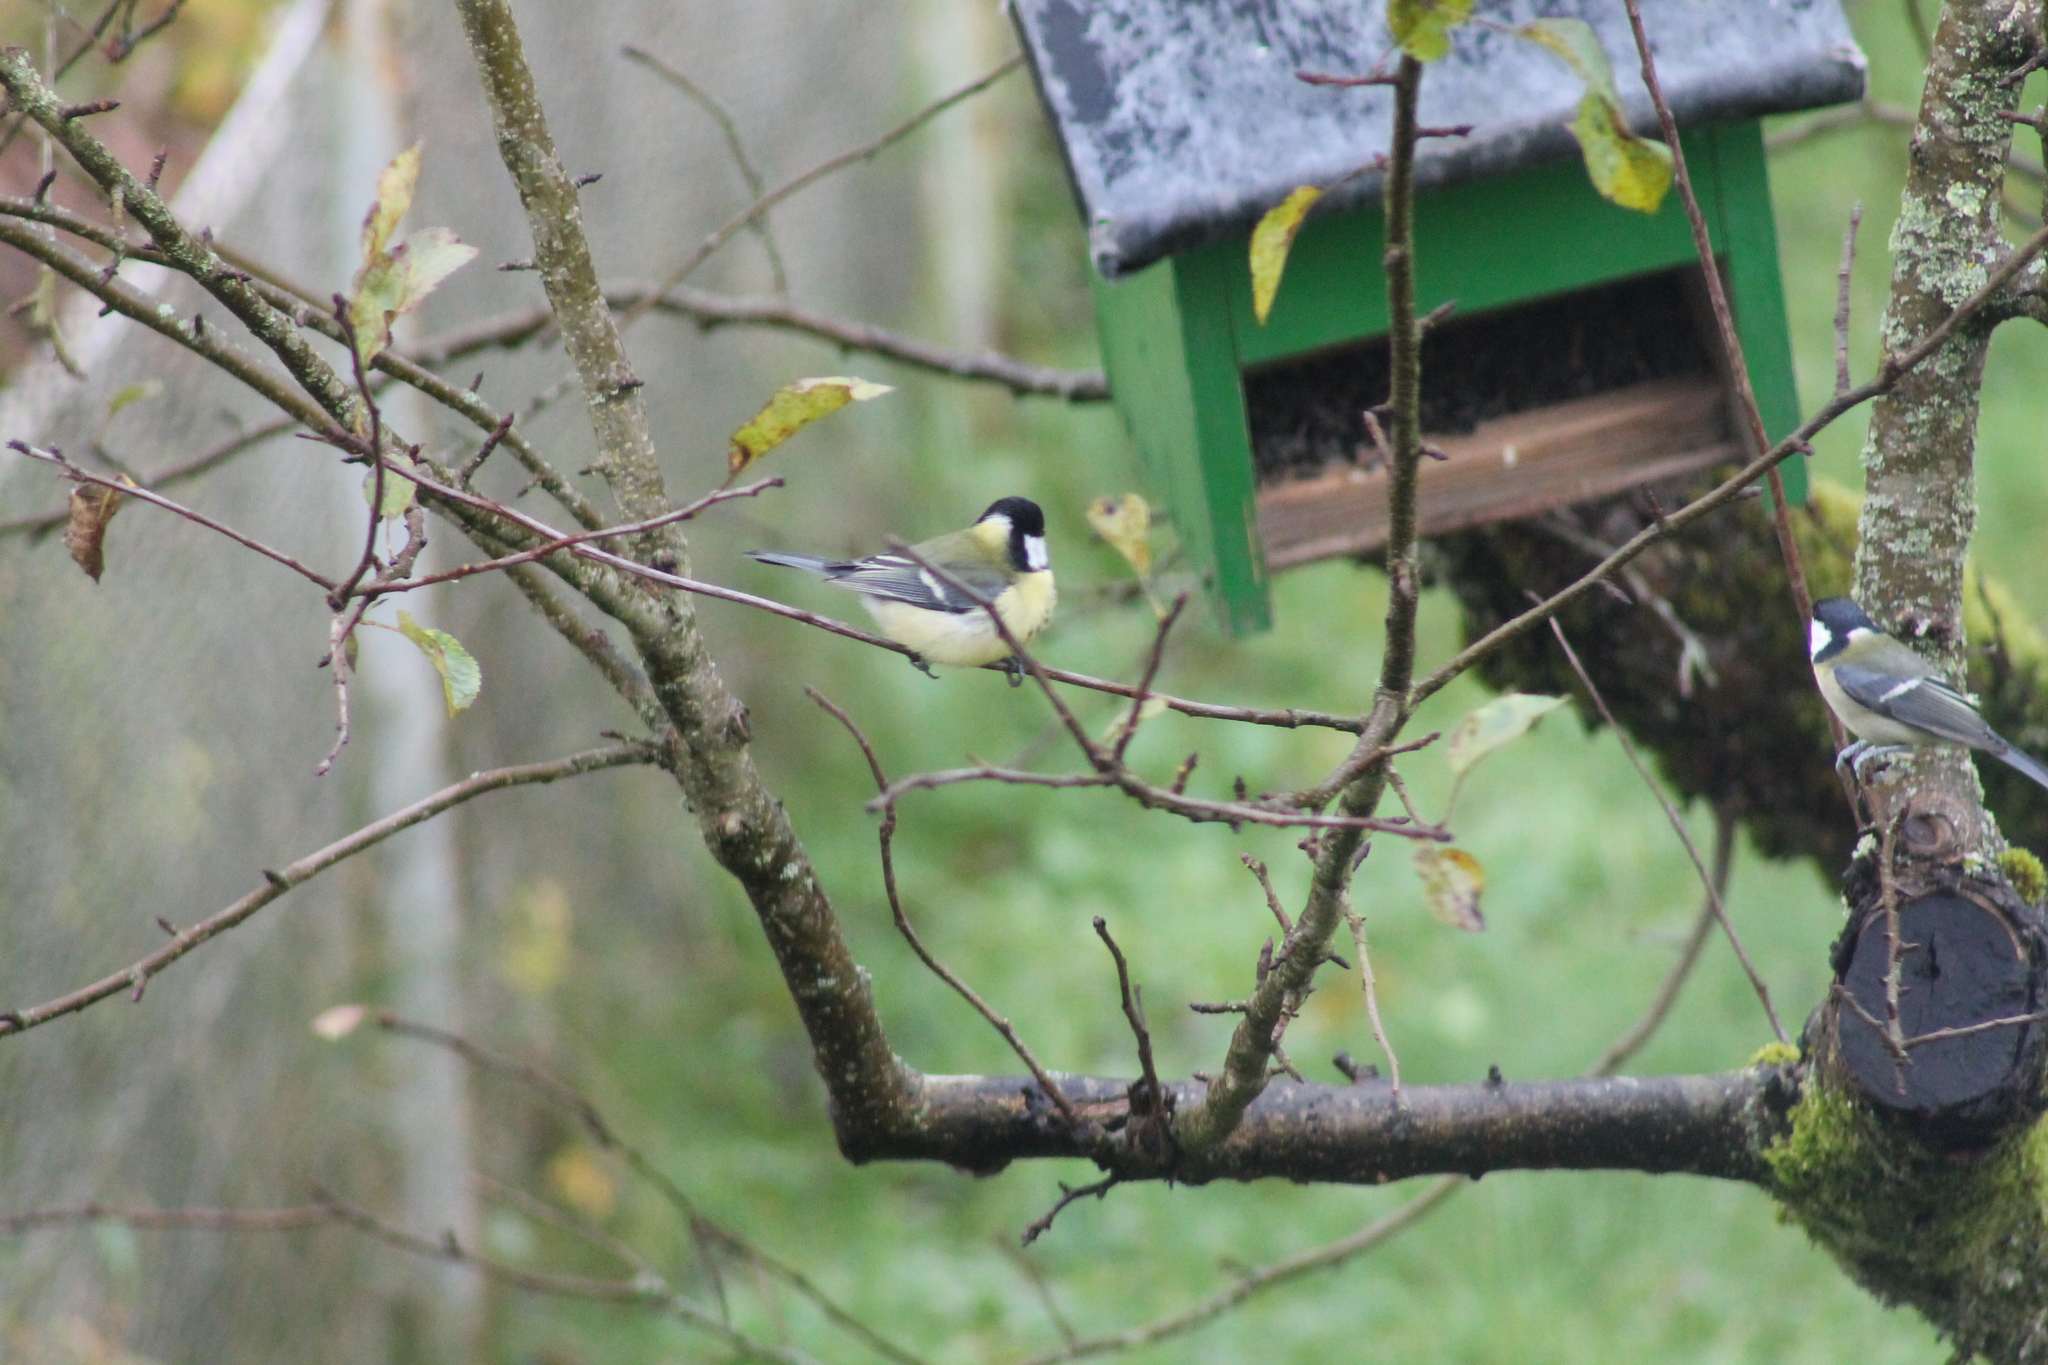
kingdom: Animalia
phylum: Chordata
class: Aves
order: Passeriformes
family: Paridae
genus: Parus
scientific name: Parus major
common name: Great tit
